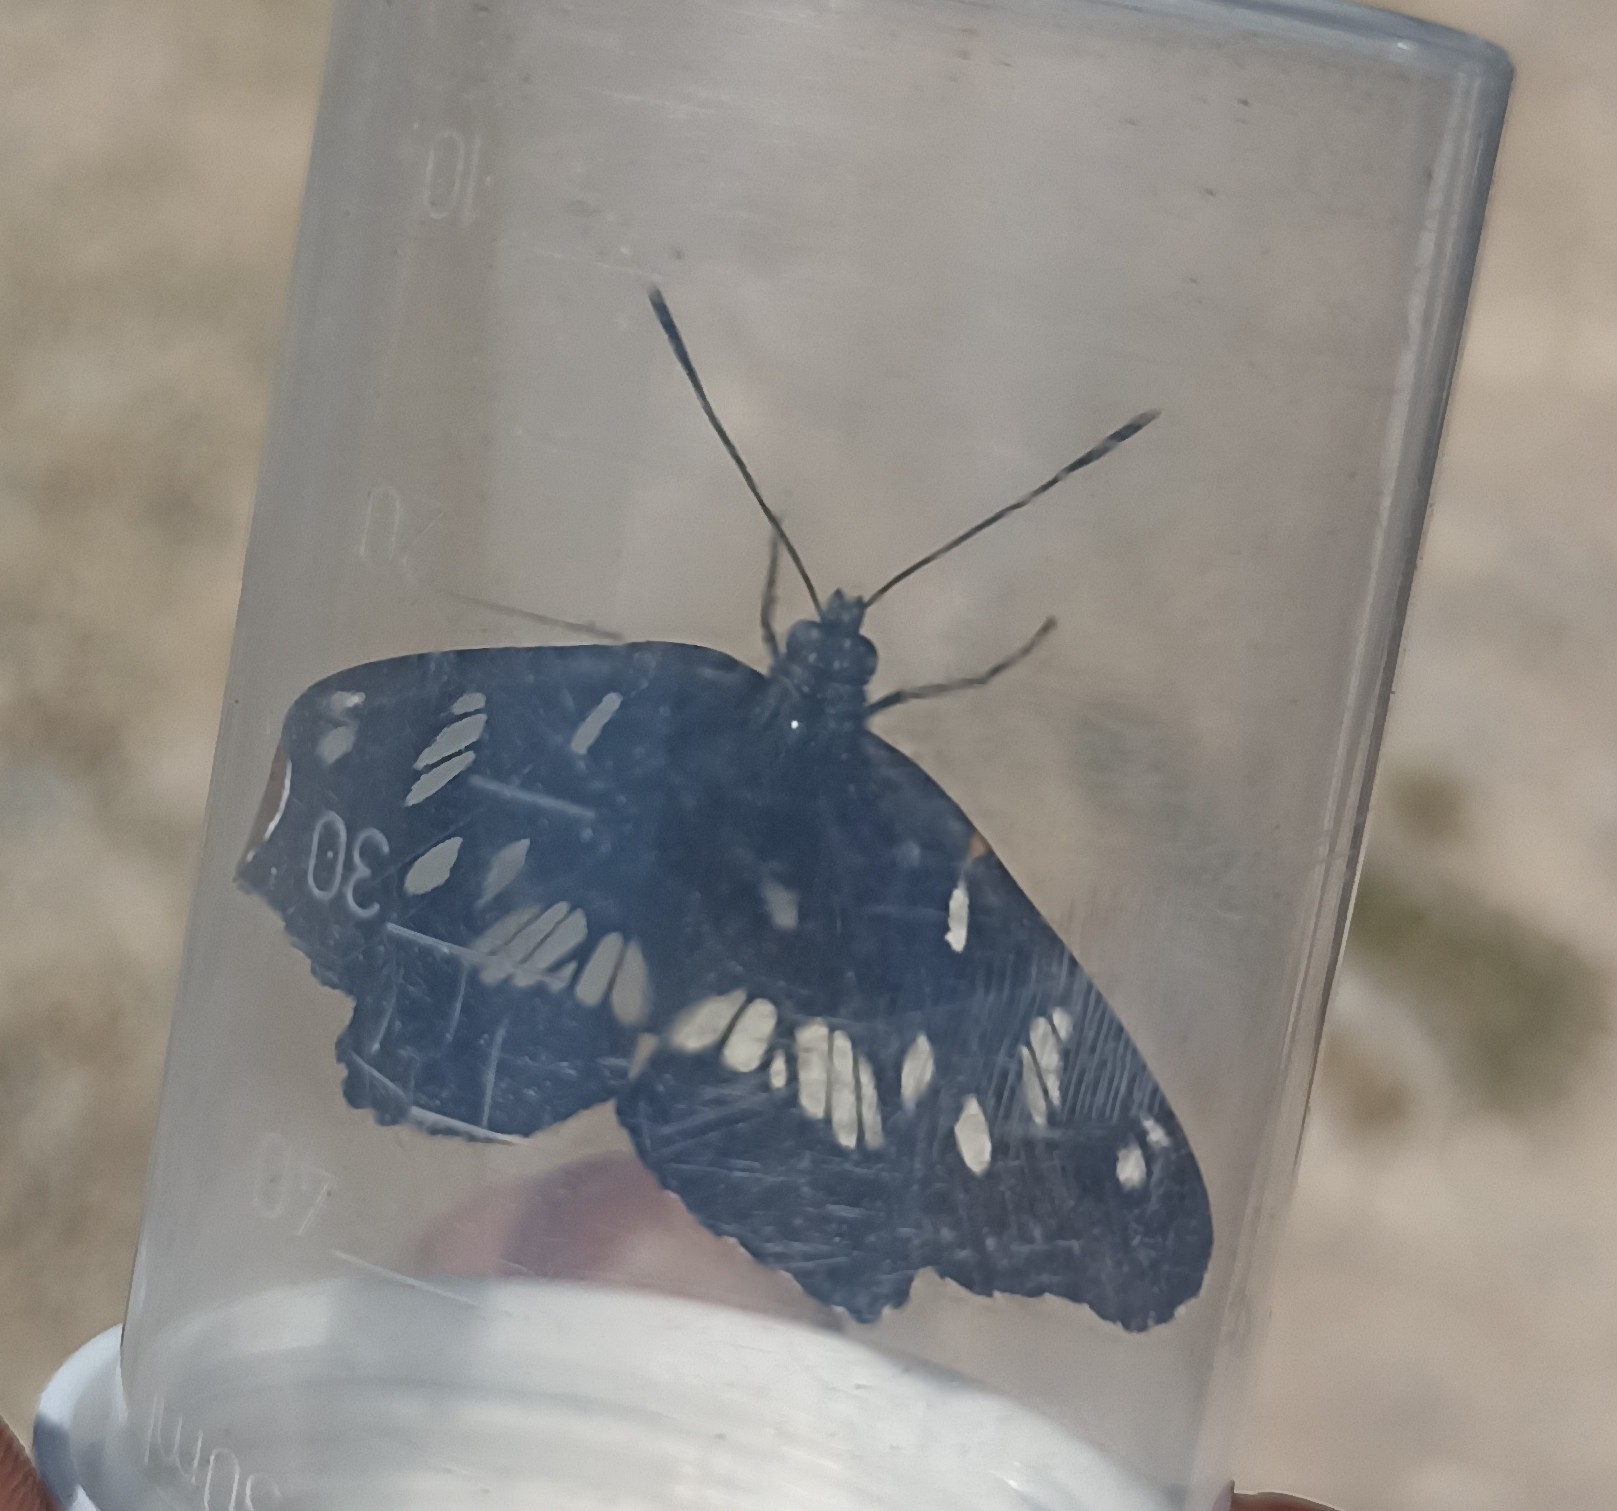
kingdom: Animalia
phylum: Arthropoda
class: Insecta
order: Lepidoptera
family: Nymphalidae
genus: Limenitis
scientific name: Limenitis reducta
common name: Southern white admiral
